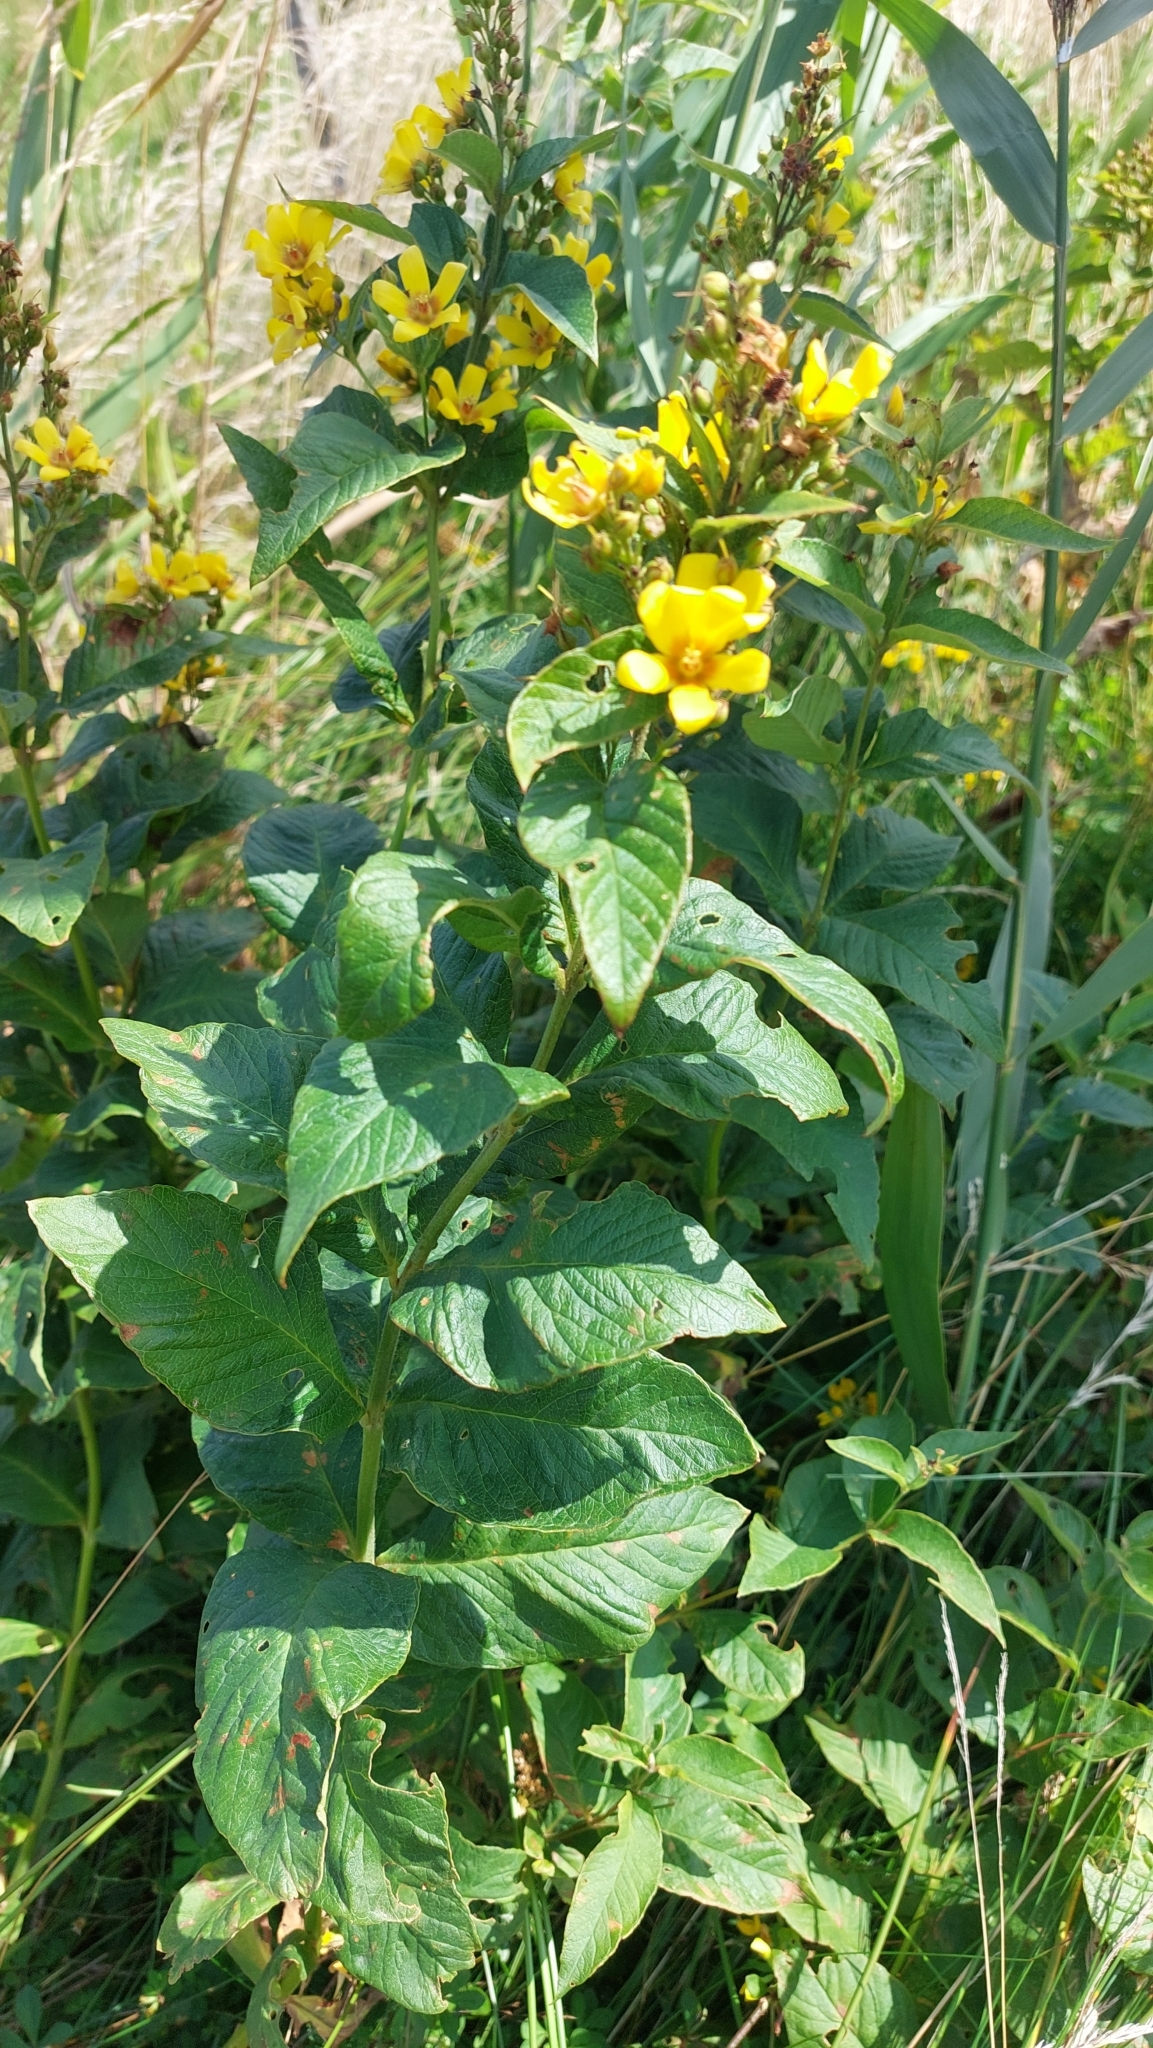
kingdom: Plantae
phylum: Tracheophyta
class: Magnoliopsida
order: Ericales
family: Primulaceae
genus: Lysimachia
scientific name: Lysimachia vulgaris
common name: Yellow loosestrife
